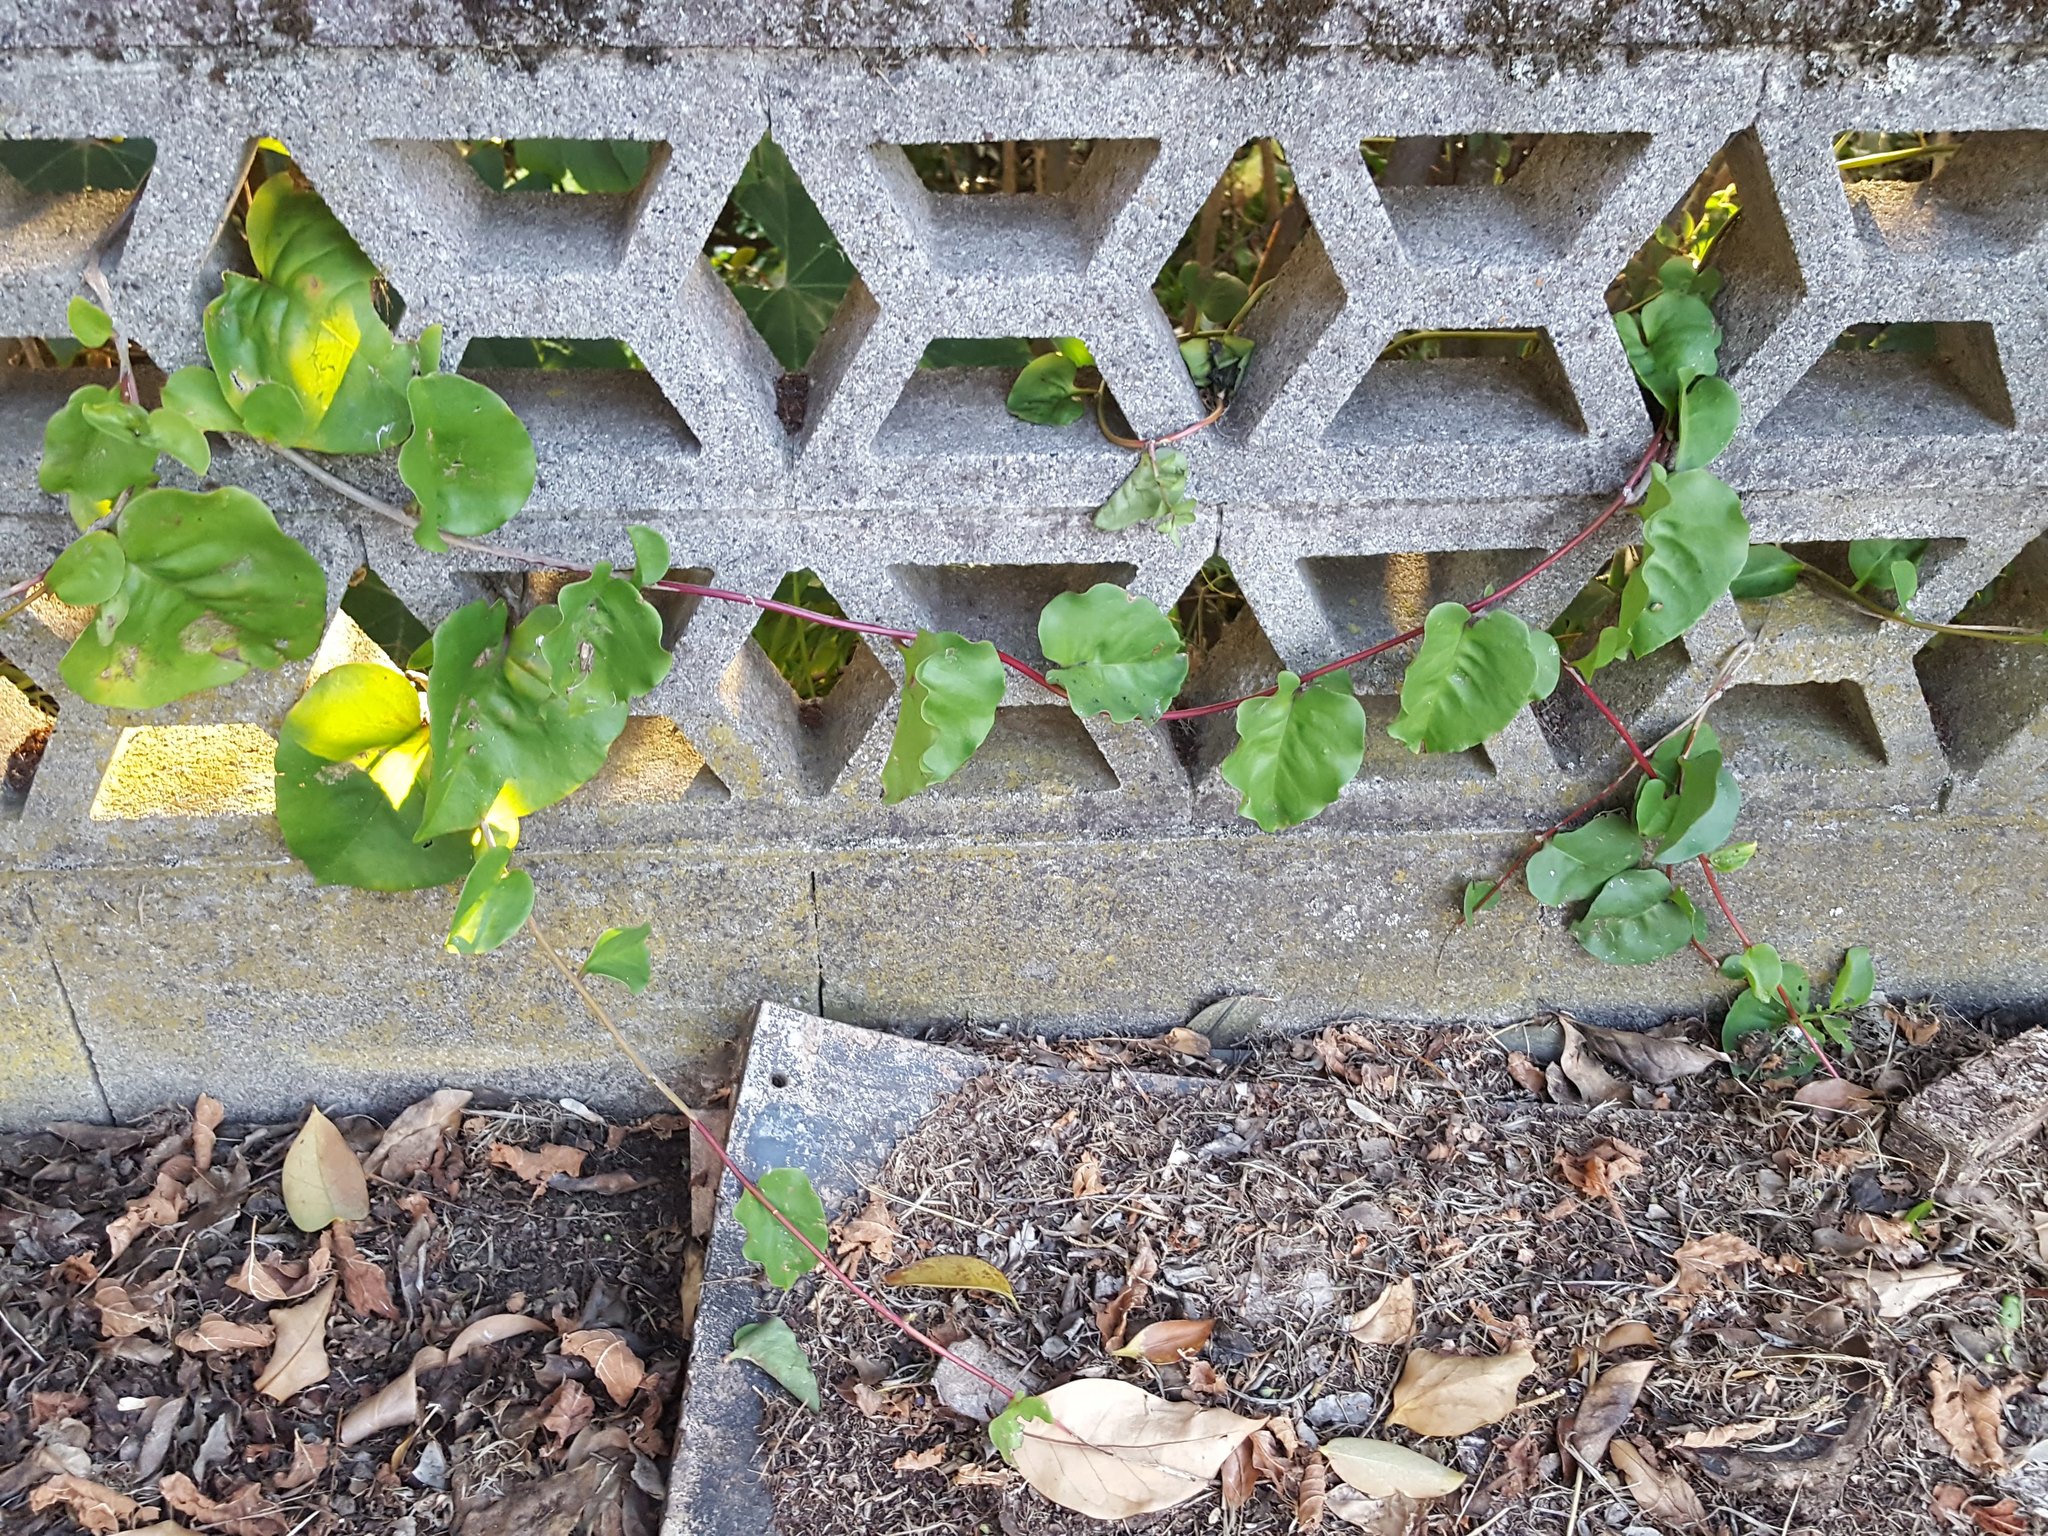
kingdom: Plantae
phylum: Tracheophyta
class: Magnoliopsida
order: Caryophyllales
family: Basellaceae
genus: Anredera
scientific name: Anredera cordifolia
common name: Heartleaf madeiravine
